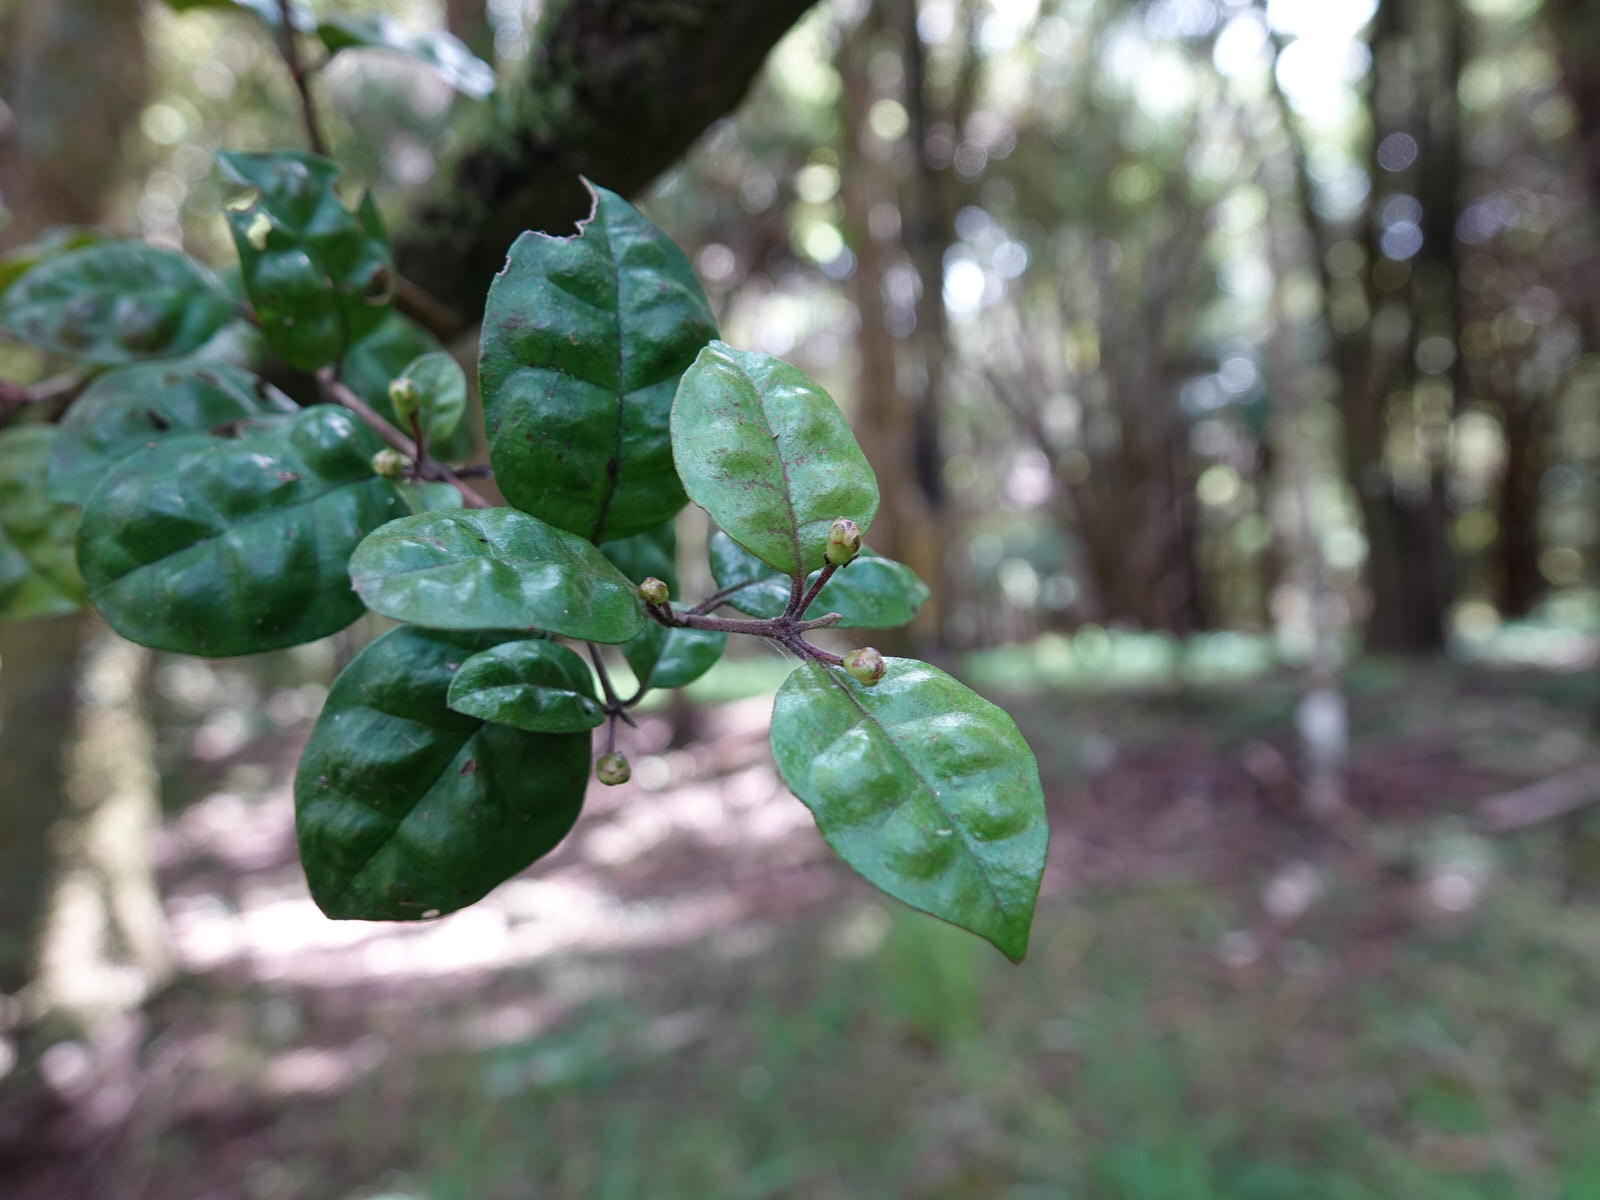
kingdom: Plantae
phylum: Tracheophyta
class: Magnoliopsida
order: Myrtales
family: Myrtaceae
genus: Lophomyrtus
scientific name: Lophomyrtus bullata
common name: Rama rama
